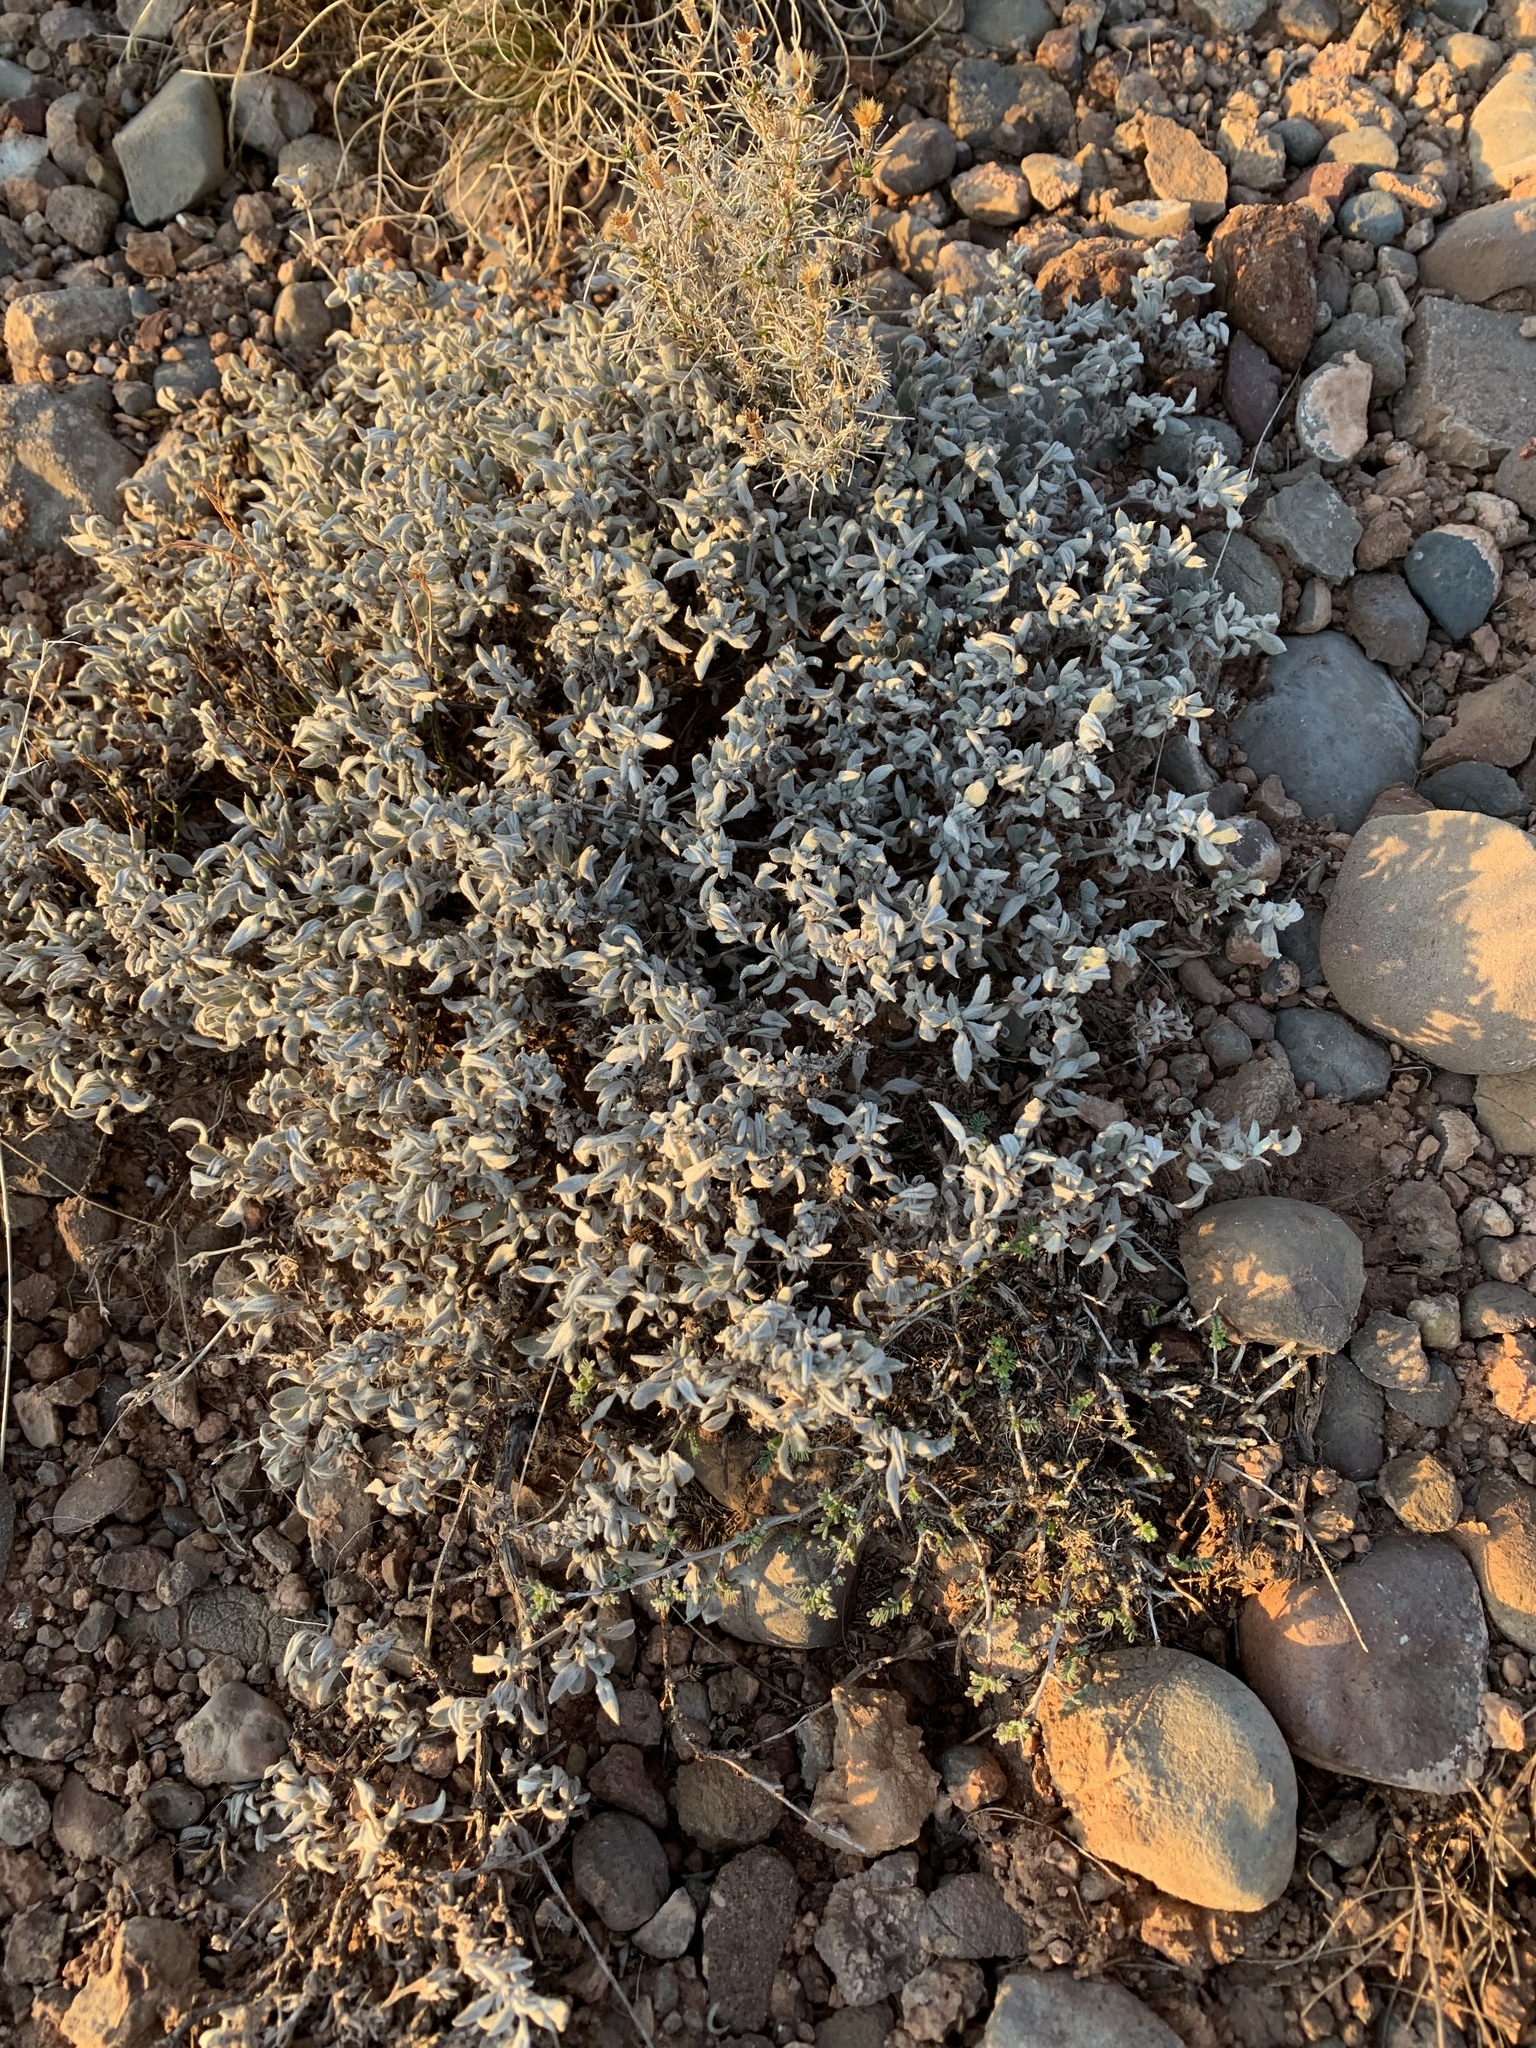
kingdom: Plantae
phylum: Tracheophyta
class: Magnoliopsida
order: Boraginales
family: Ehretiaceae
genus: Tiquilia
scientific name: Tiquilia canescens
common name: Hairy tiquilia
